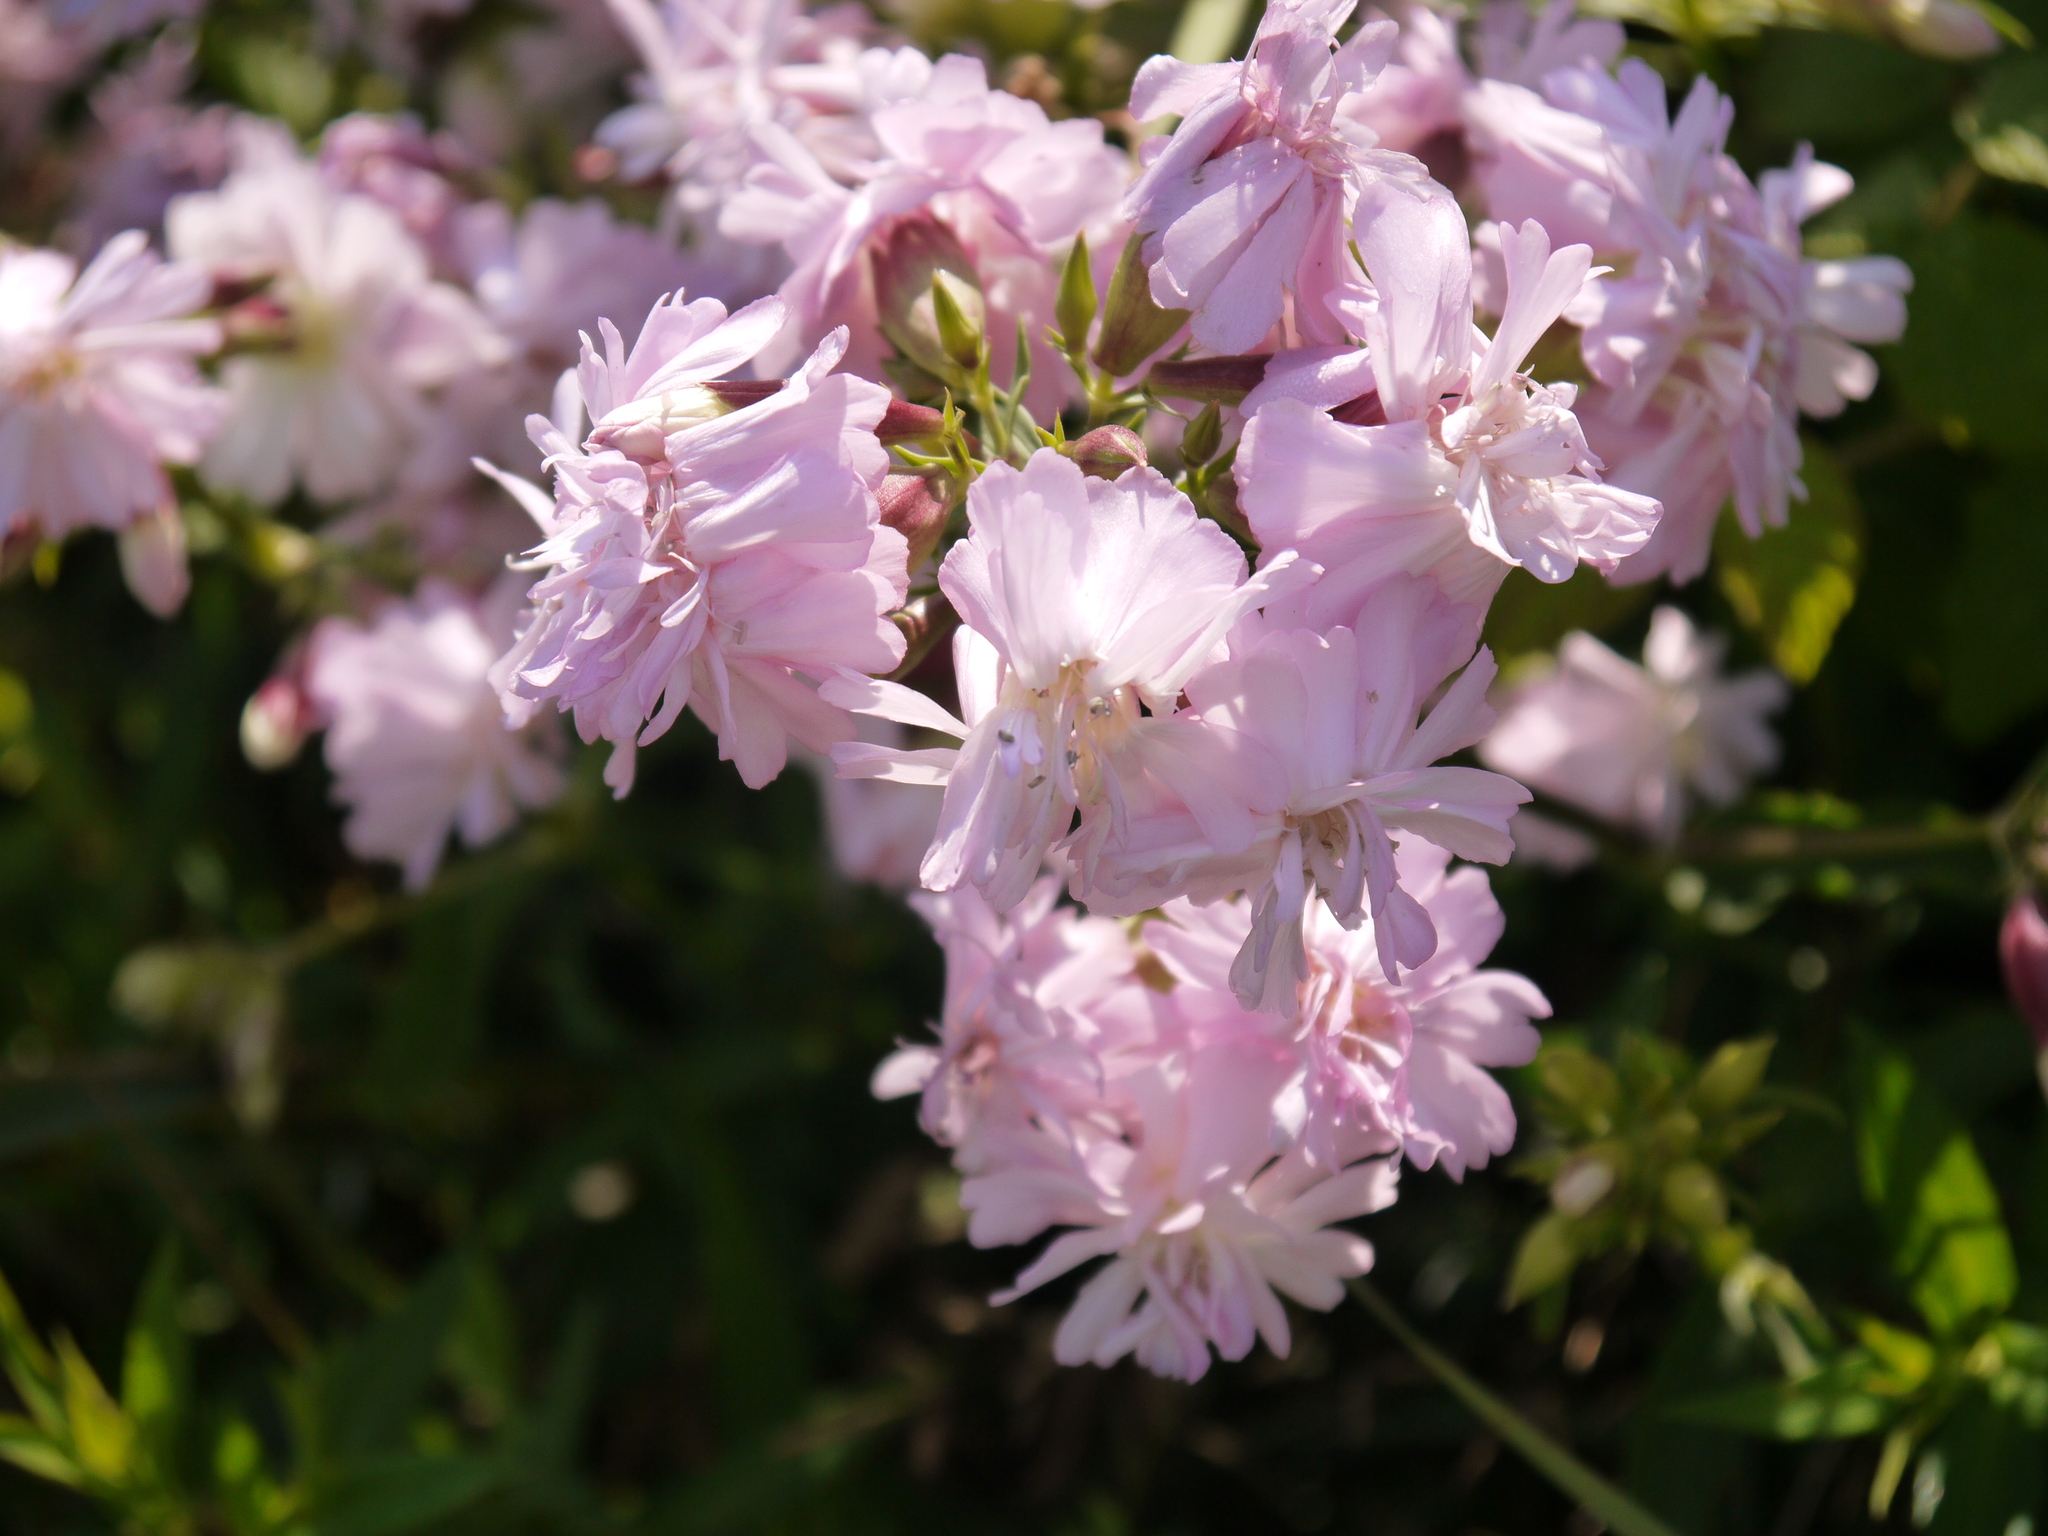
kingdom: Plantae
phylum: Tracheophyta
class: Magnoliopsida
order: Caryophyllales
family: Caryophyllaceae
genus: Saponaria
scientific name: Saponaria officinalis
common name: Soapwort
